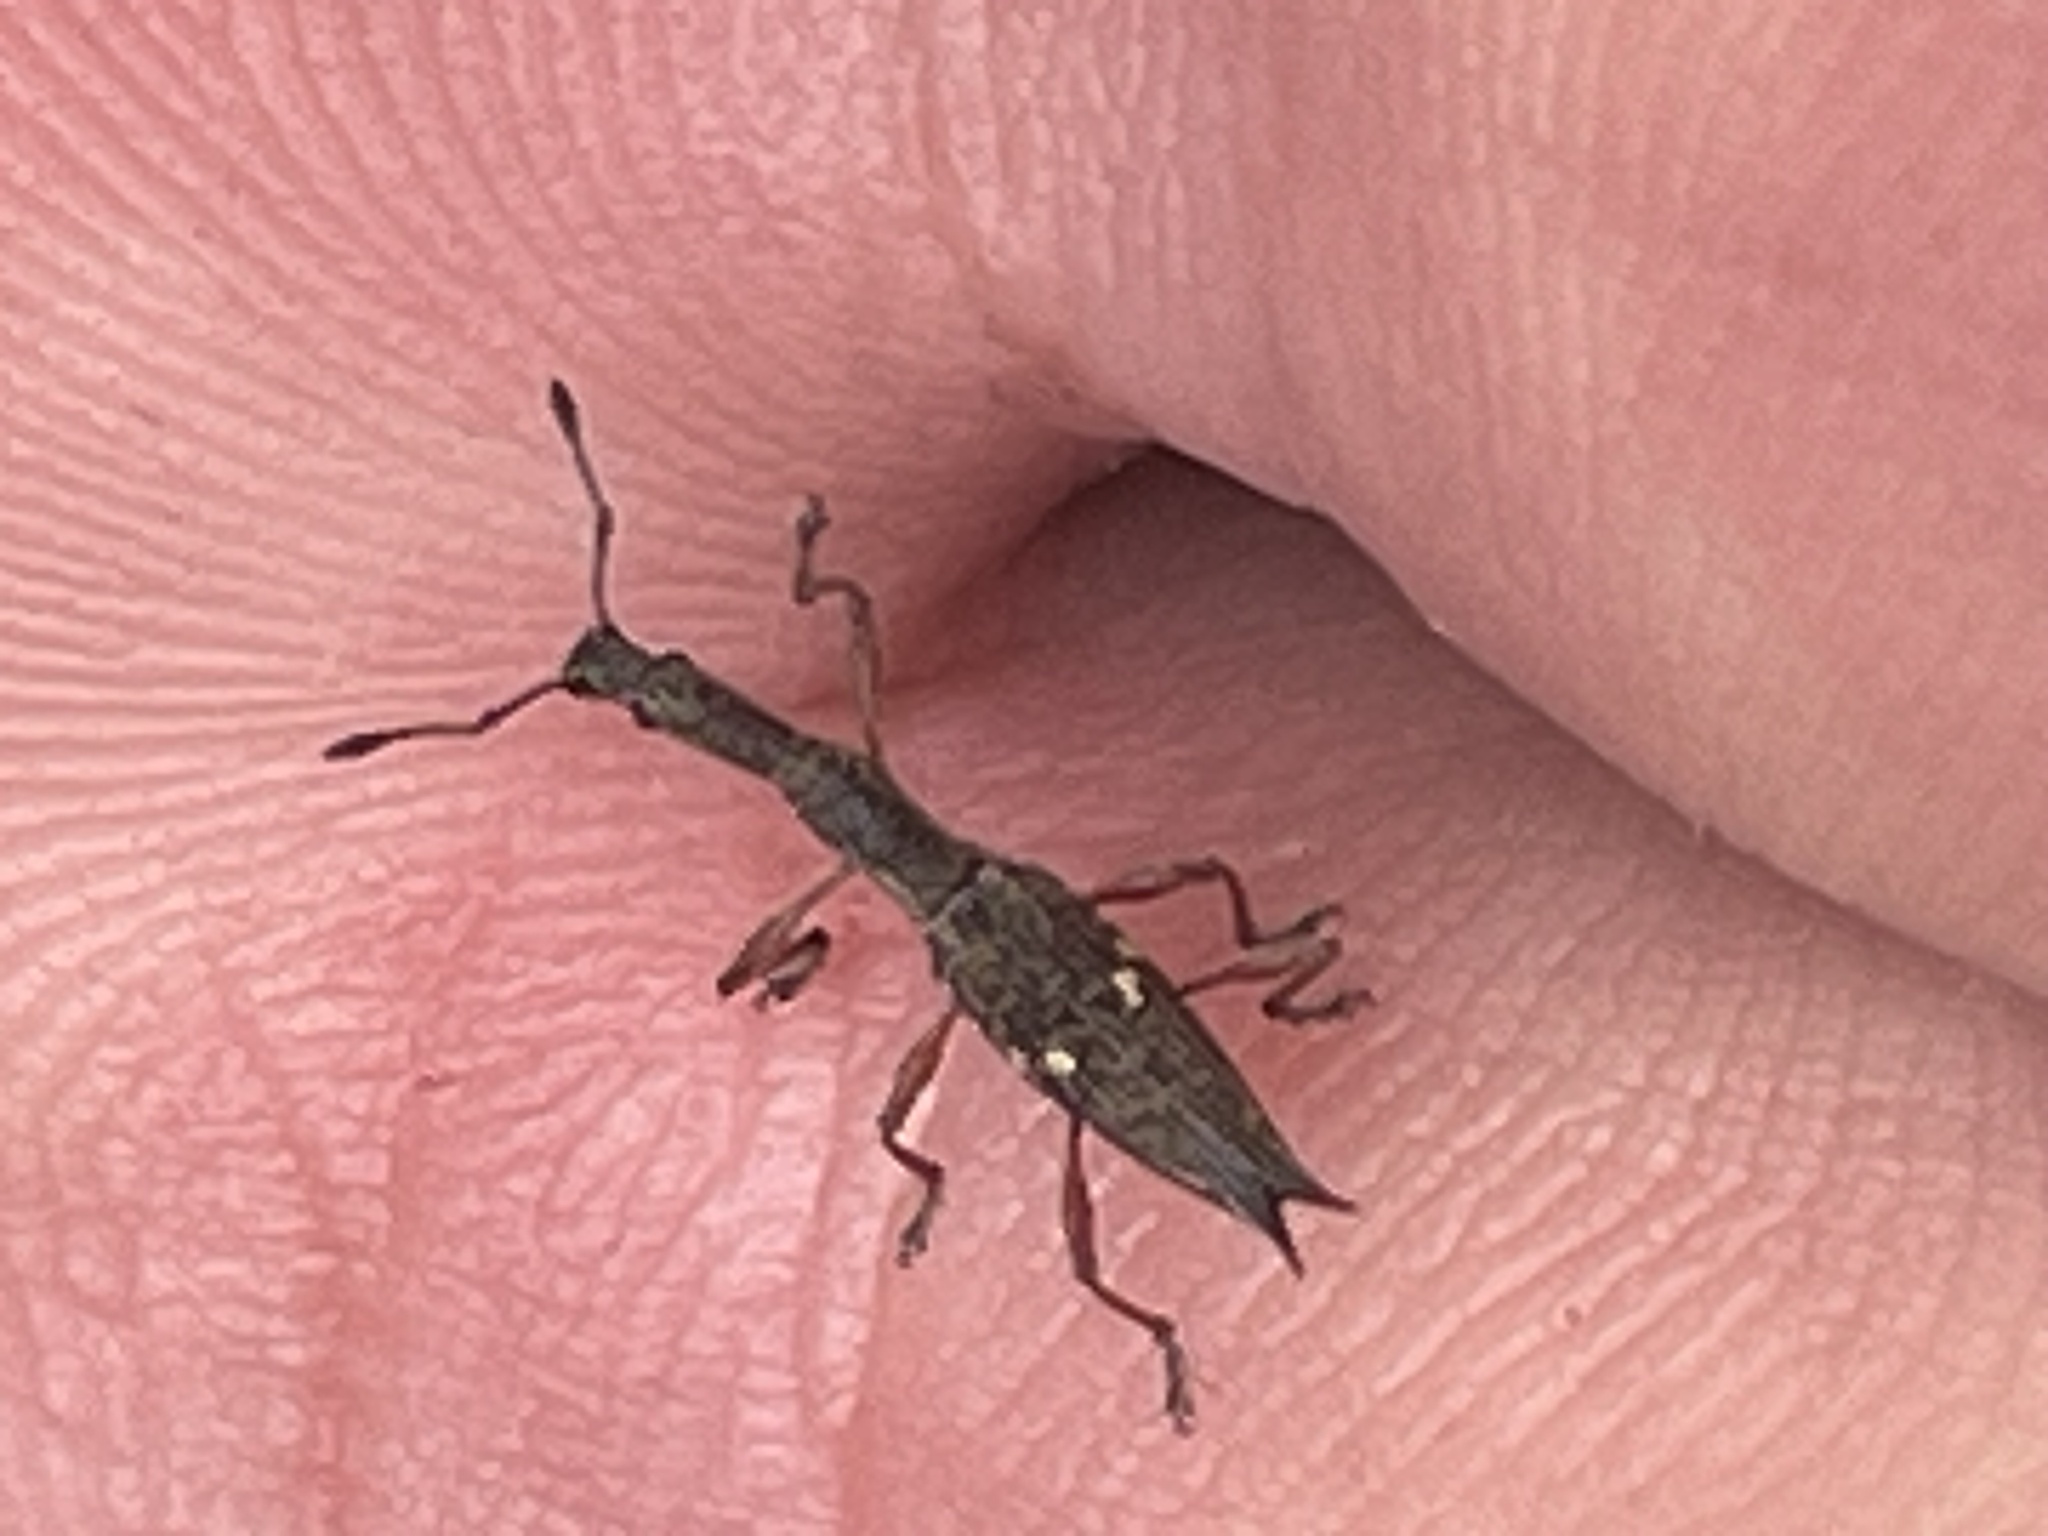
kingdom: Animalia
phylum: Arthropoda
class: Insecta
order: Coleoptera
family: Curculionidae
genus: Rhadinosomus
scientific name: Rhadinosomus acuminatus
